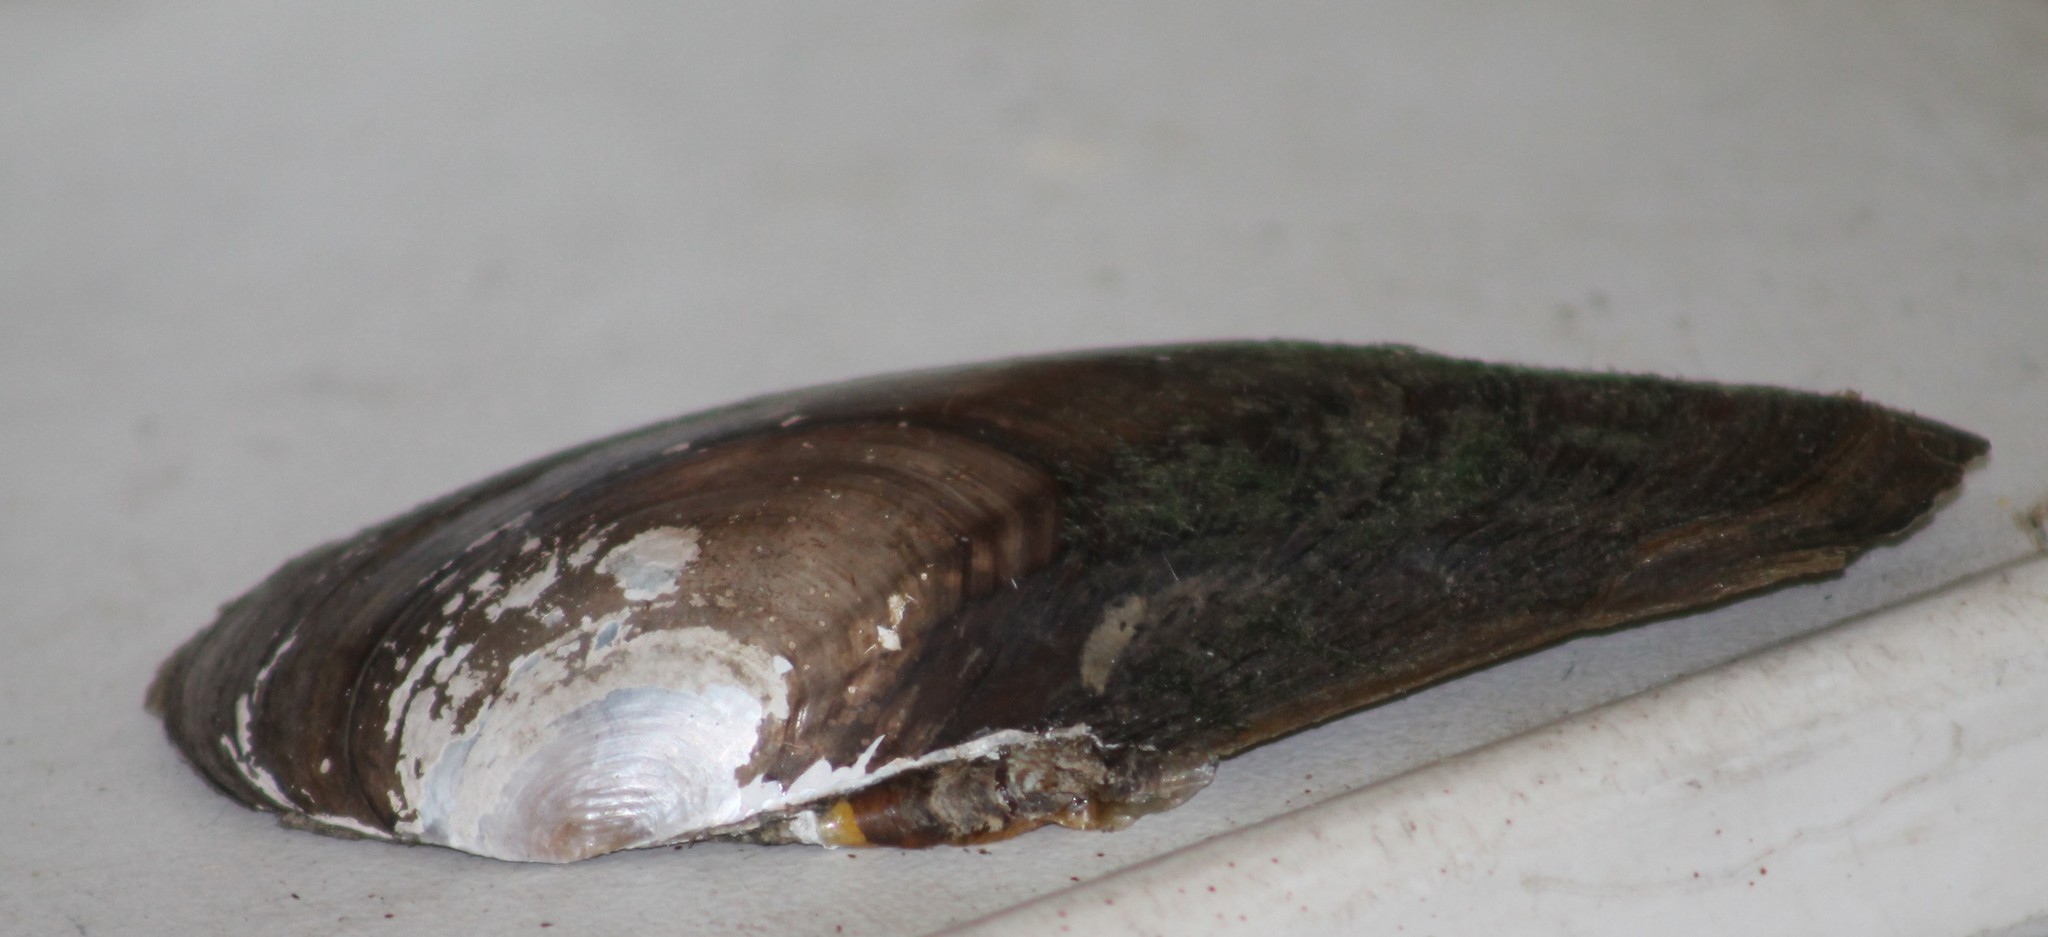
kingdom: Animalia
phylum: Mollusca
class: Bivalvia
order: Unionida
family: Unionidae
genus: Anodonta
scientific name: Anodonta anatina
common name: Duck mussel
